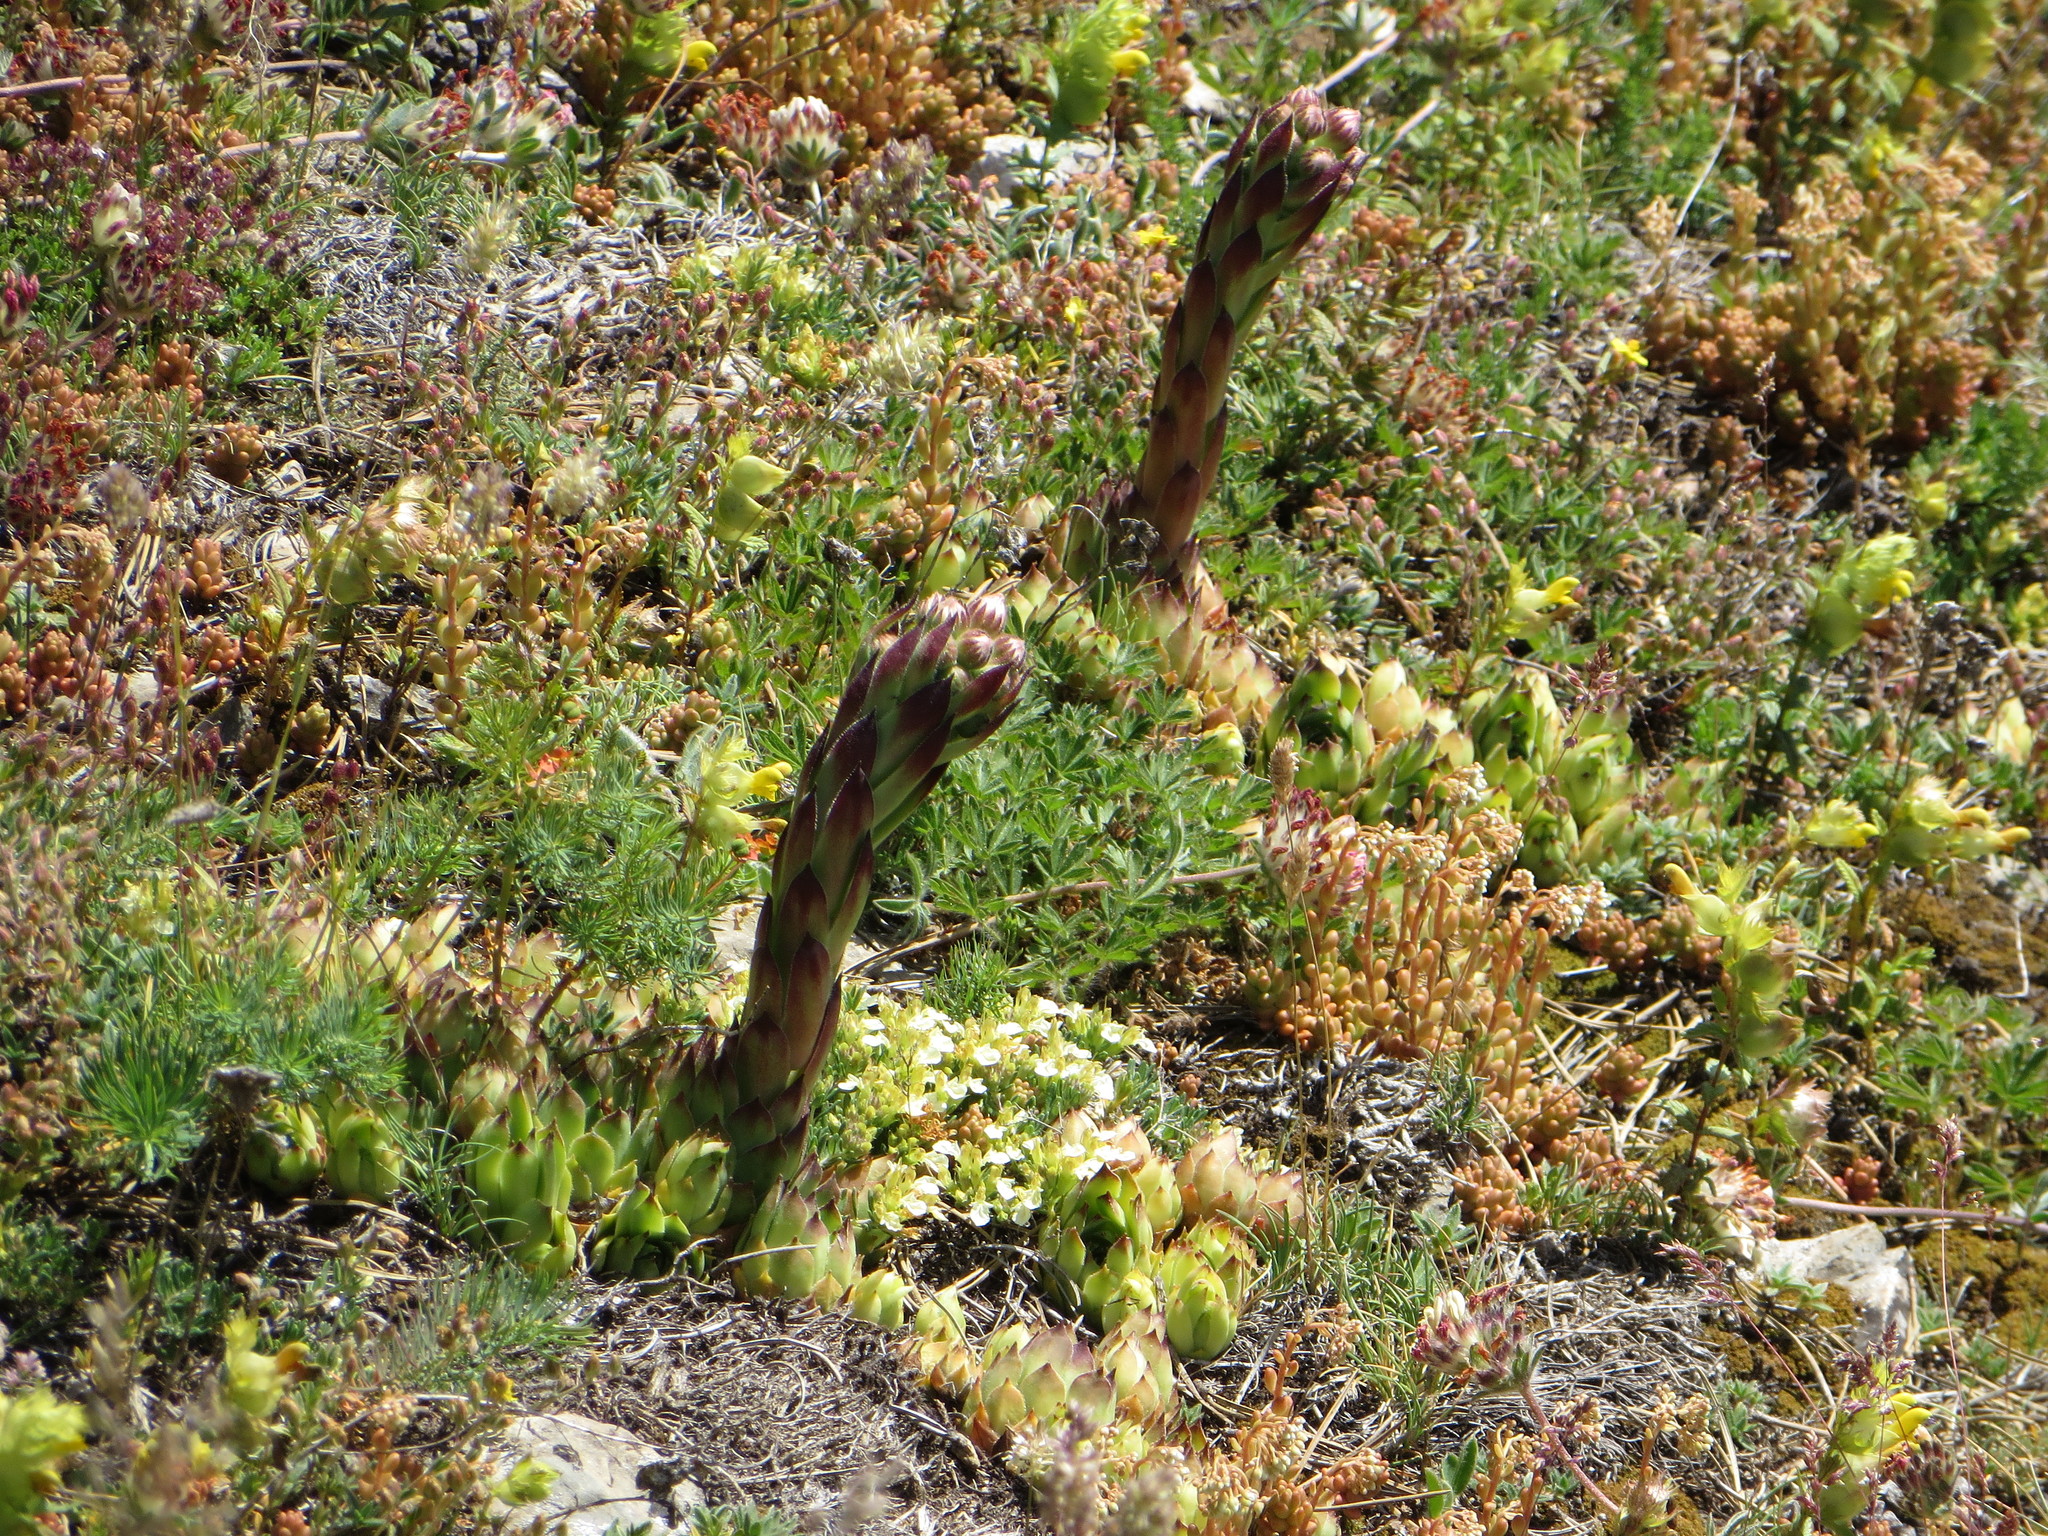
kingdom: Plantae
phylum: Tracheophyta
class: Magnoliopsida
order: Saxifragales
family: Crassulaceae
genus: Sempervivum
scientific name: Sempervivum tectorum
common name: House-leek
